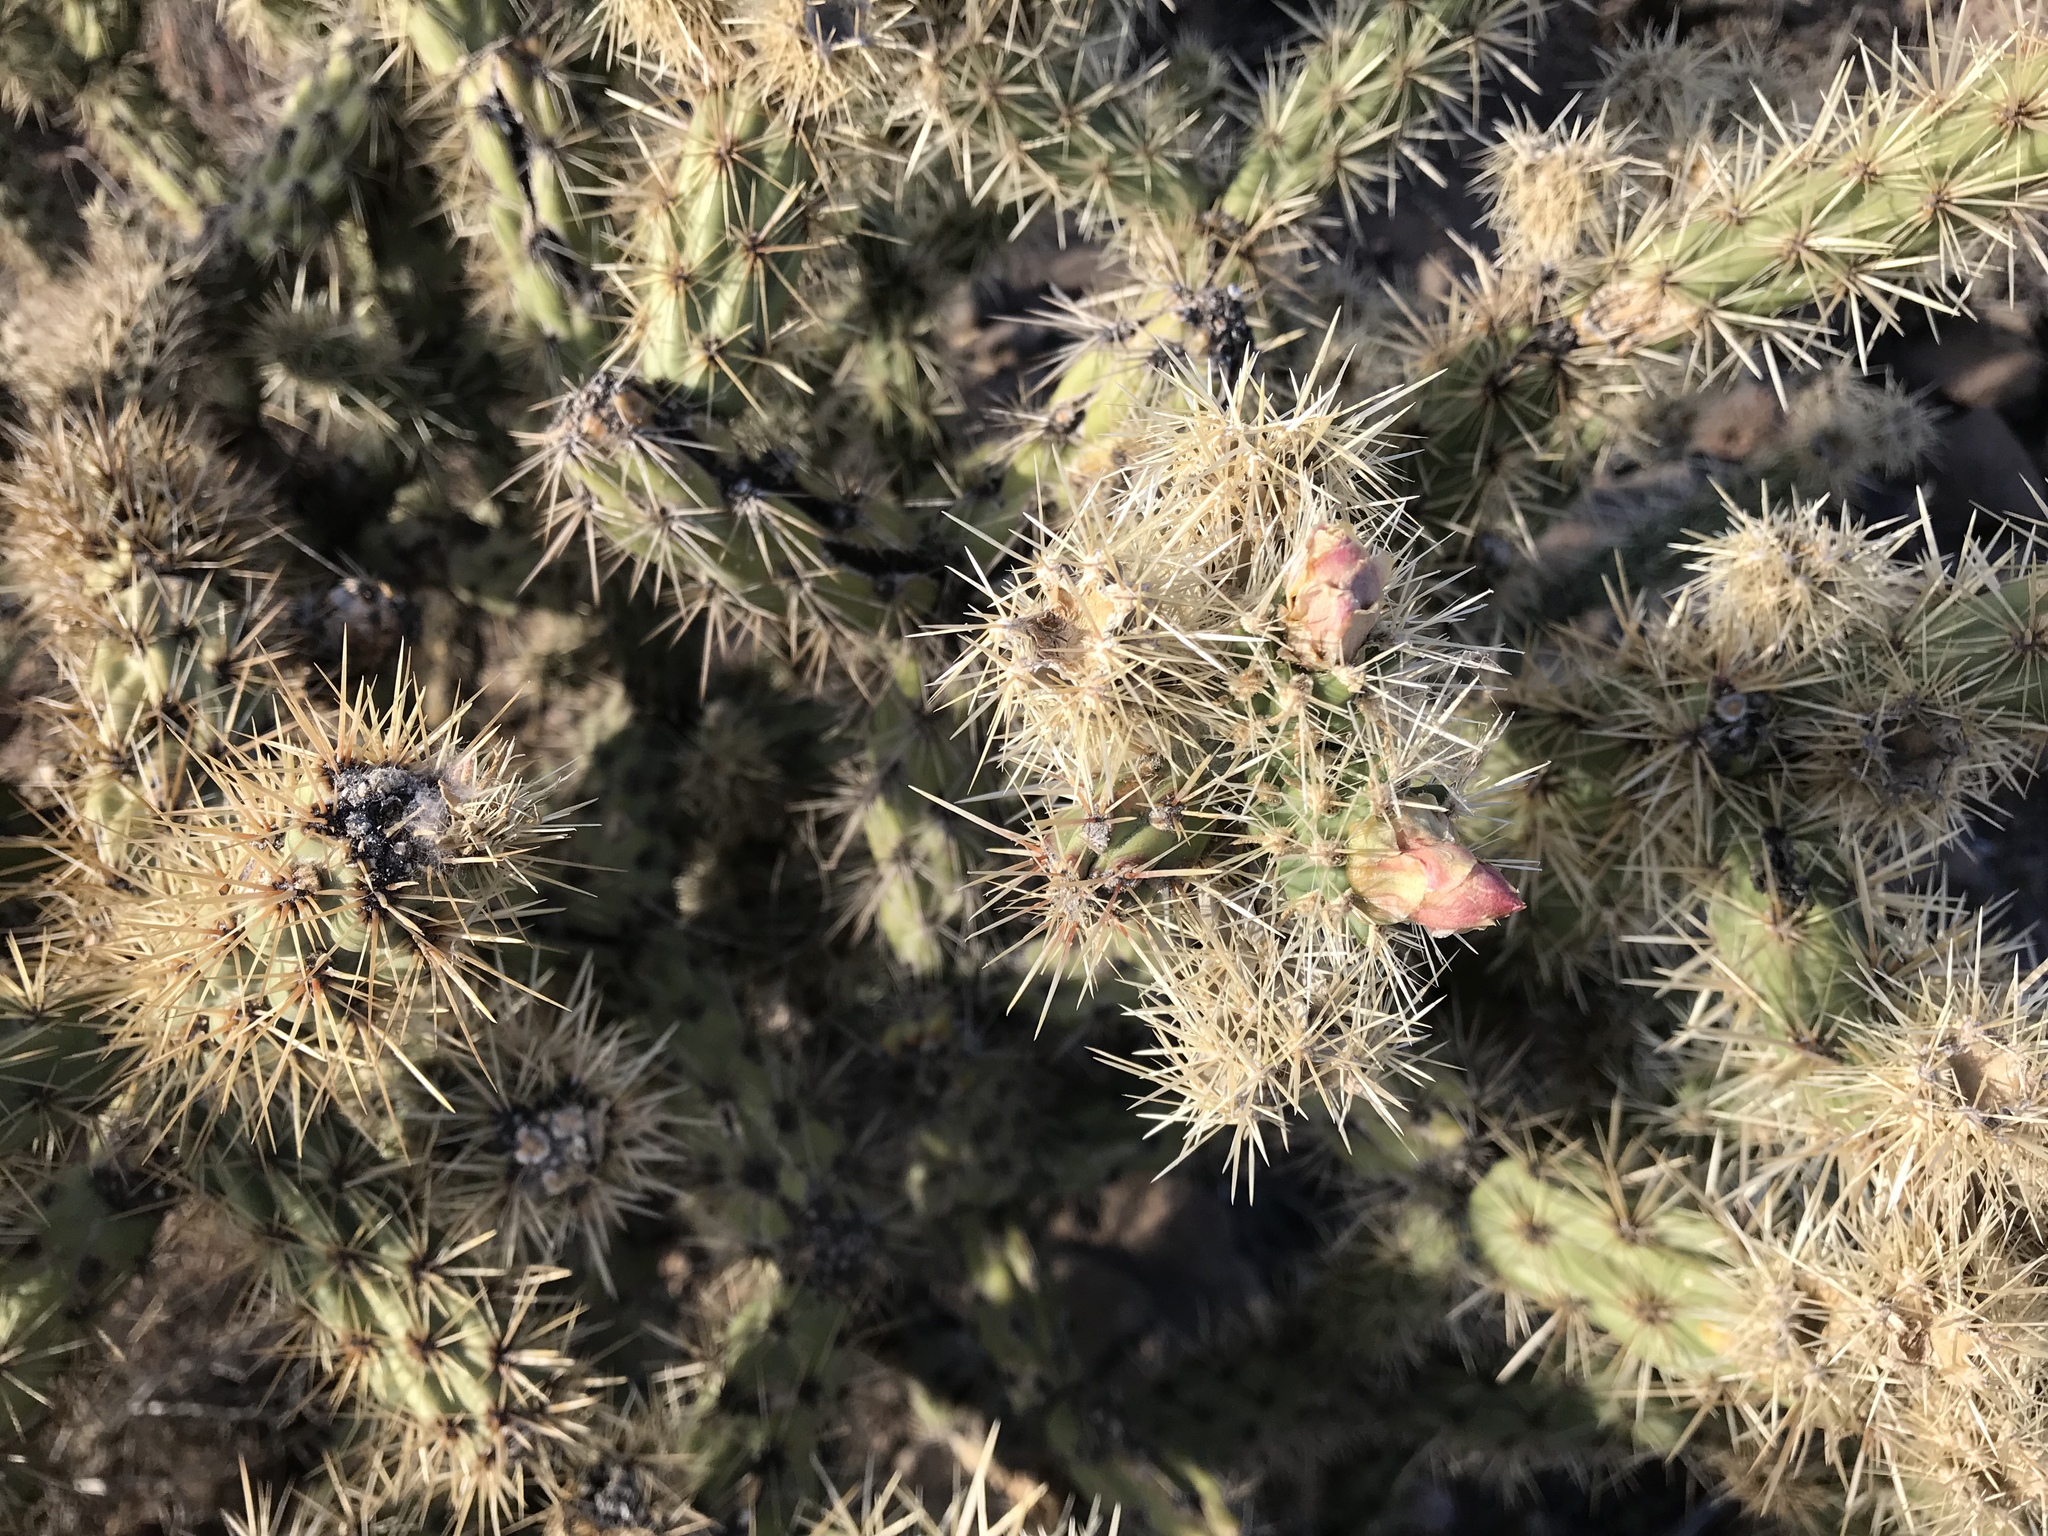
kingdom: Plantae
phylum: Tracheophyta
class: Magnoliopsida
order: Caryophyllales
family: Cactaceae
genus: Cylindropuntia
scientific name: Cylindropuntia acanthocarpa
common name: Buckhorn cholla
